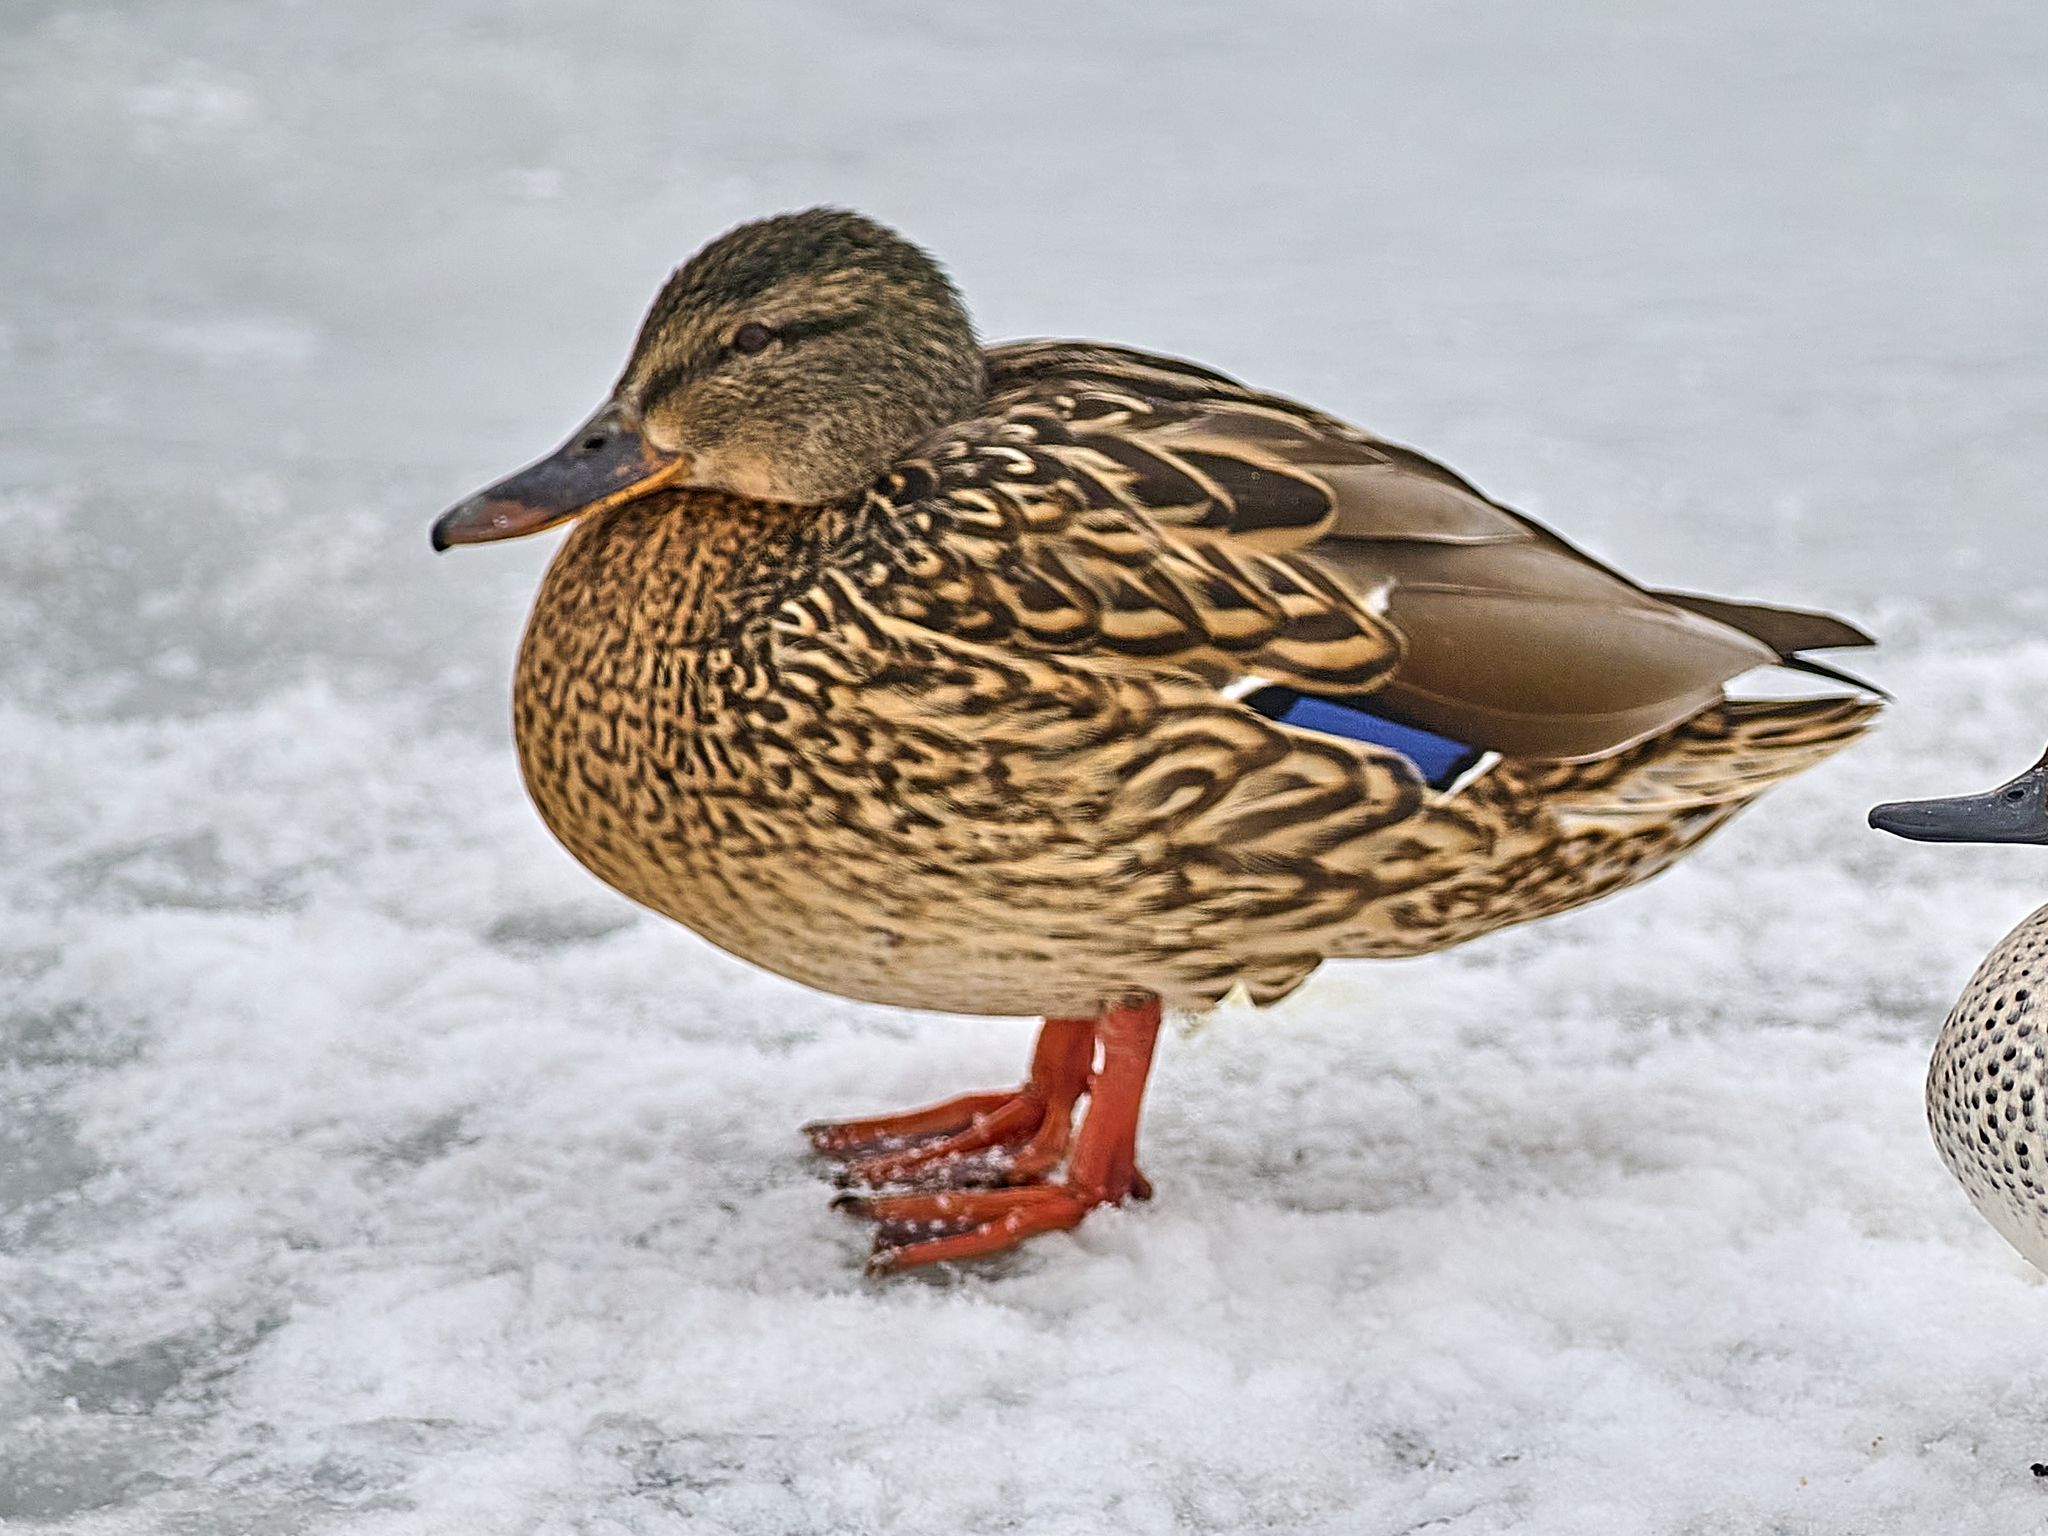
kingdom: Animalia
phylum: Chordata
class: Aves
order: Anseriformes
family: Anatidae
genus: Anas
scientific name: Anas platyrhynchos
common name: Mallard
